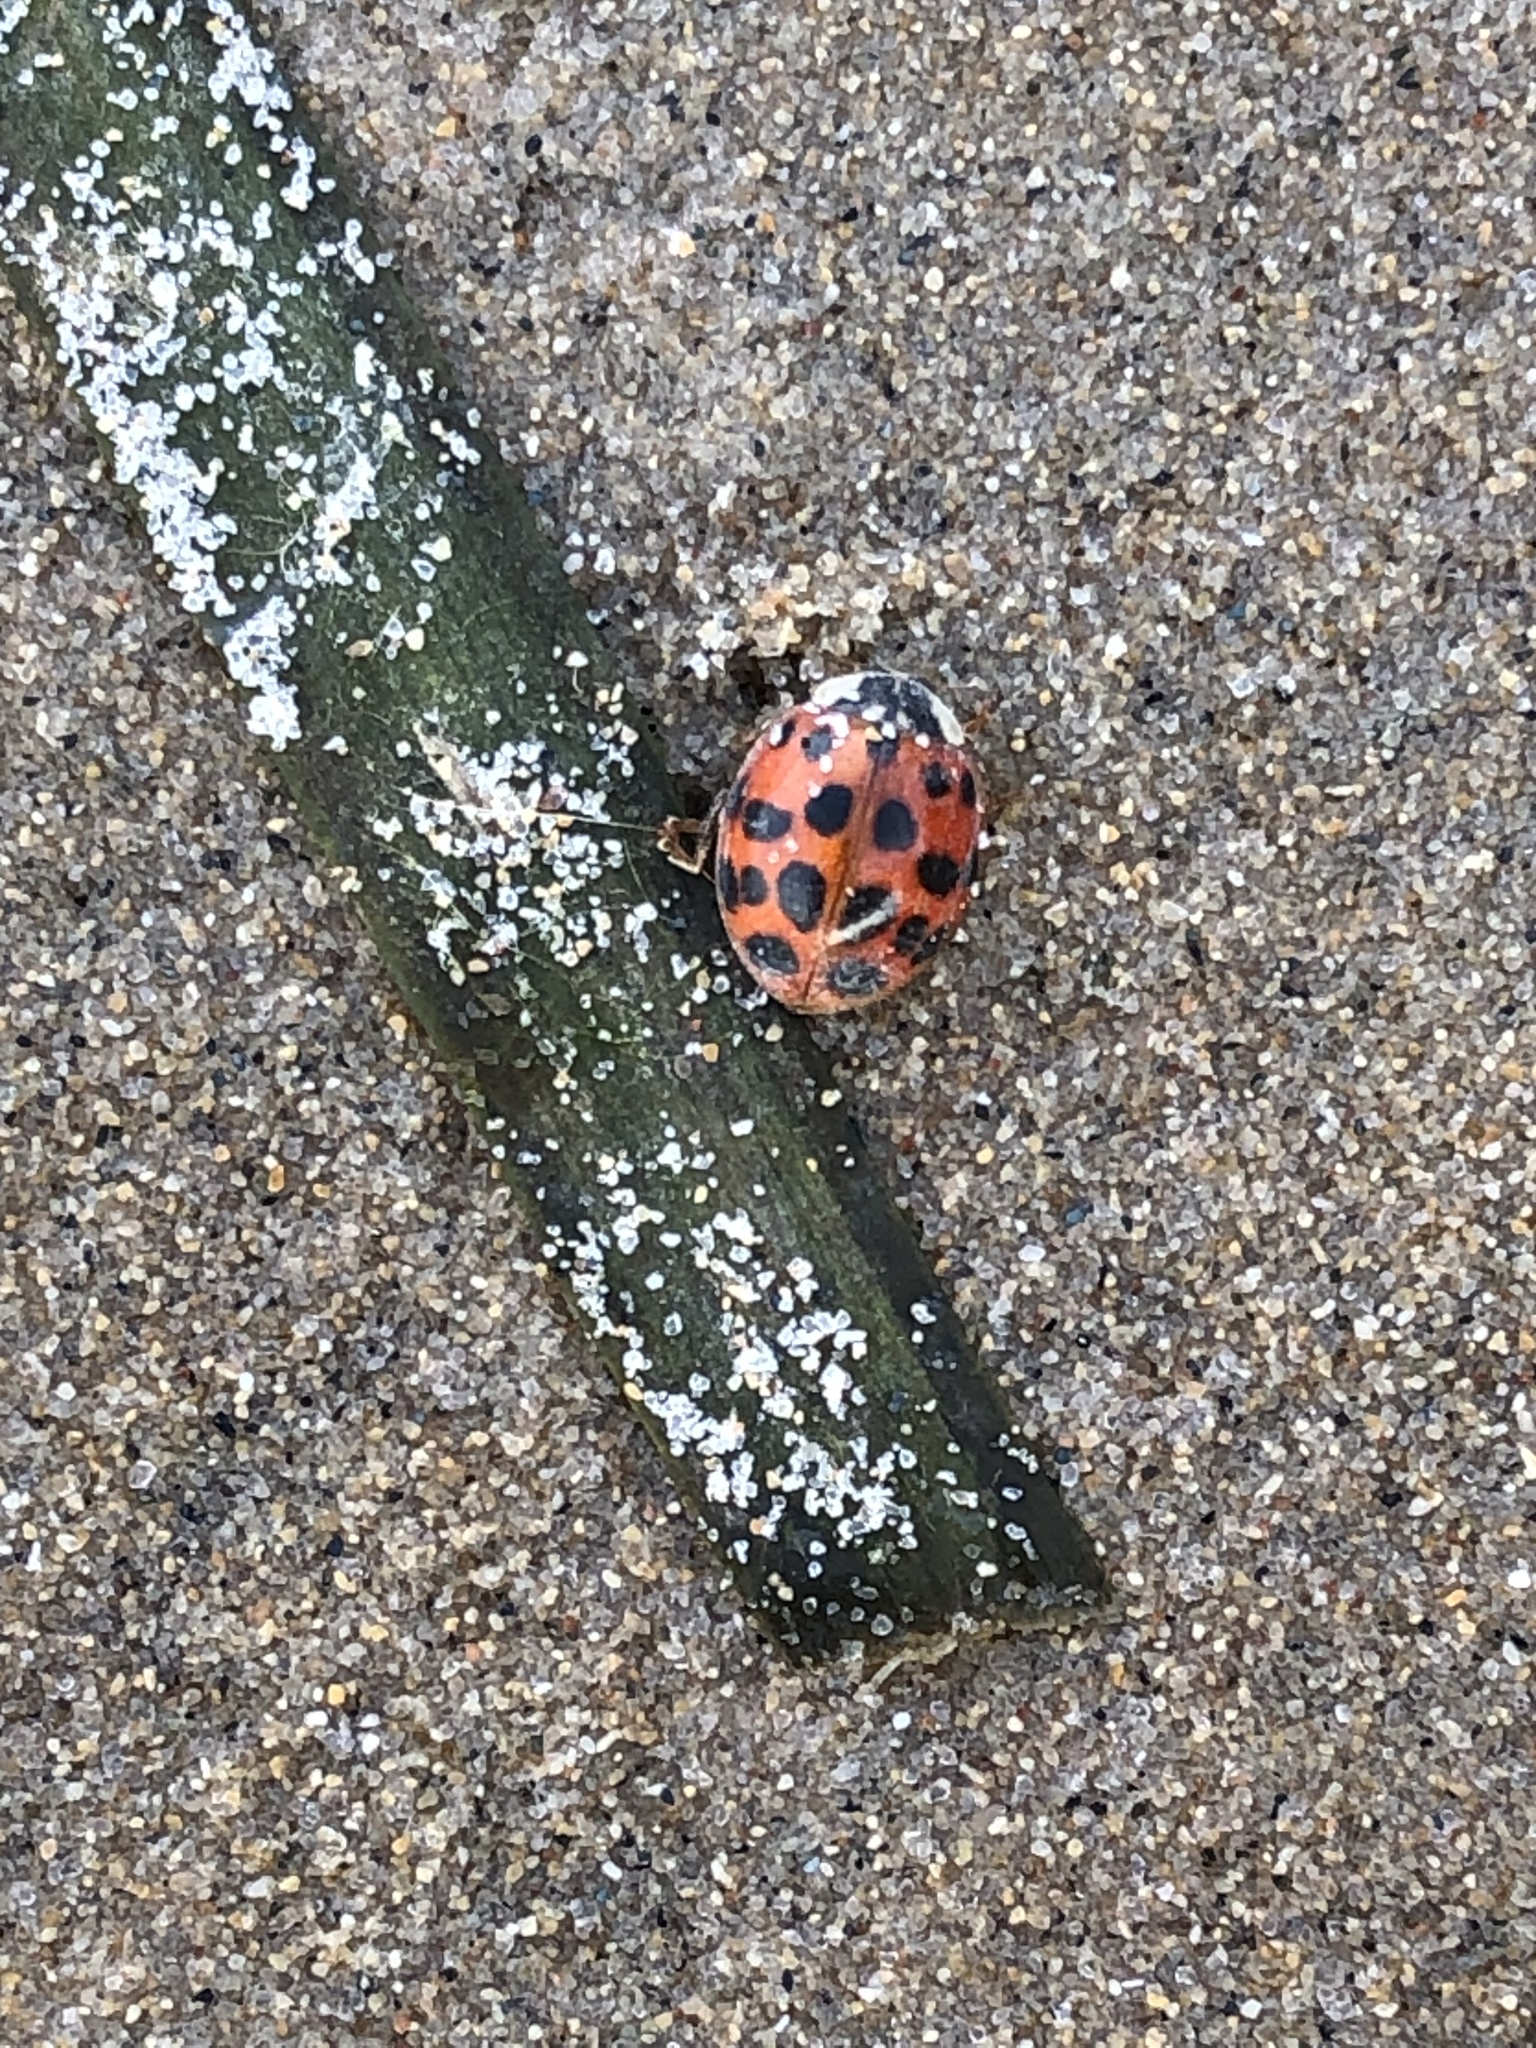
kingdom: Animalia
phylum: Arthropoda
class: Insecta
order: Coleoptera
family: Coccinellidae
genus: Harmonia
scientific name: Harmonia axyridis
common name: Harlequin ladybird
